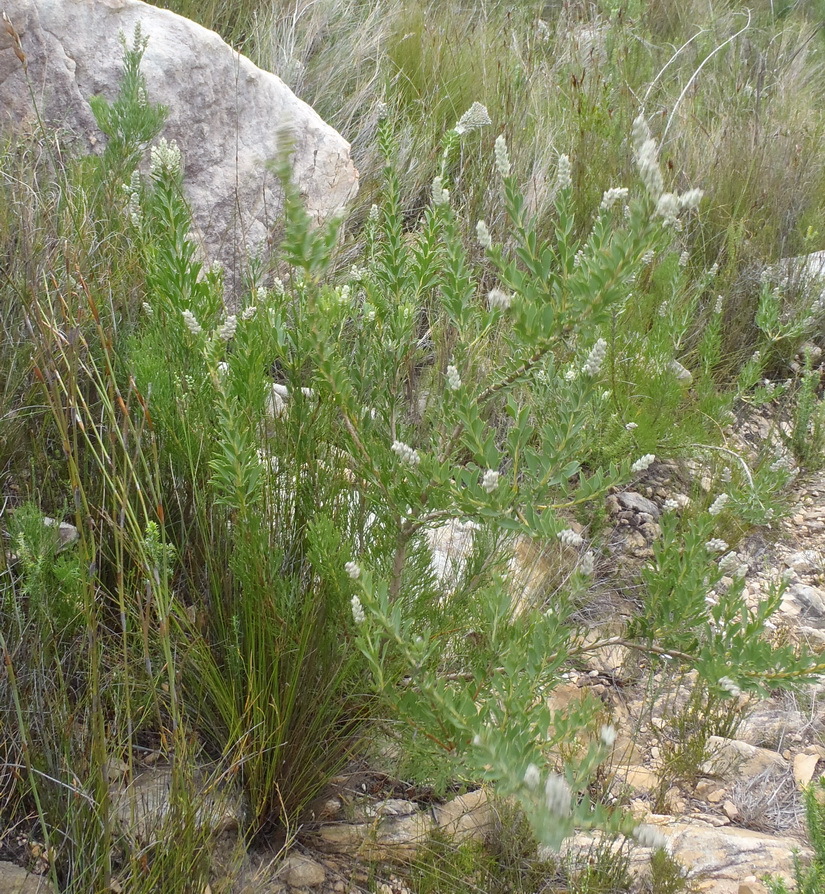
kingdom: Plantae
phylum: Tracheophyta
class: Magnoliopsida
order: Proteales
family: Proteaceae
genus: Paranomus
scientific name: Paranomus dregei
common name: Scented sceptre
